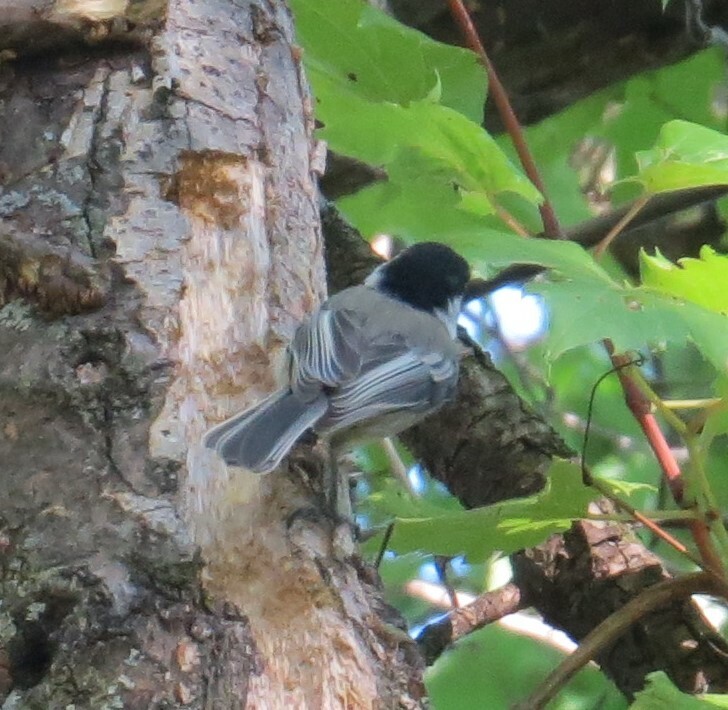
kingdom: Animalia
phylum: Chordata
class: Aves
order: Passeriformes
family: Paridae
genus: Poecile
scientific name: Poecile atricapillus
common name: Black-capped chickadee
